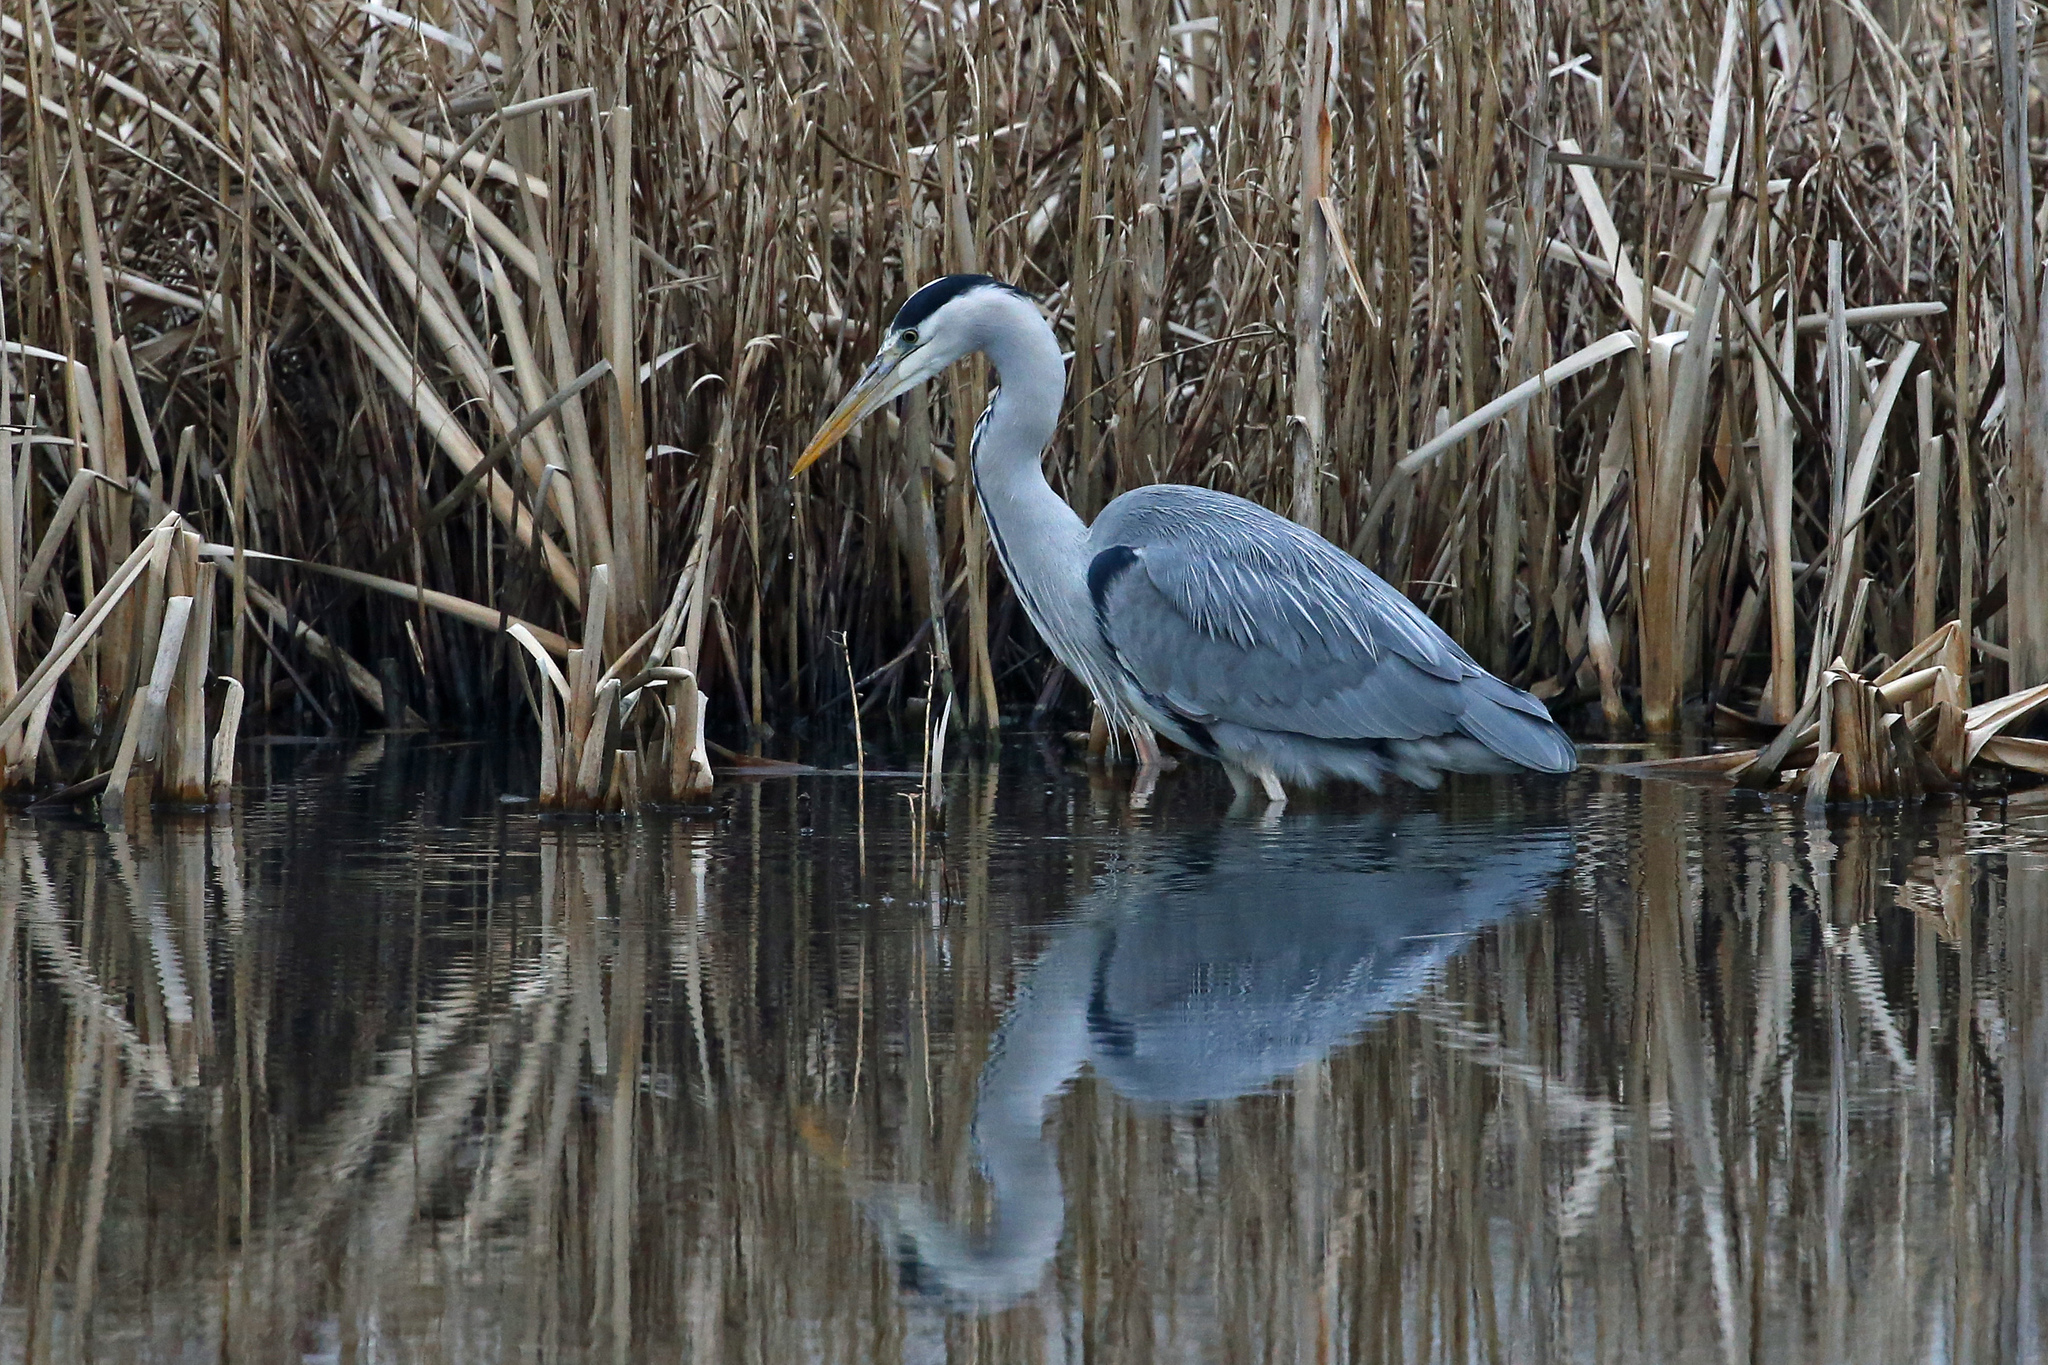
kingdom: Animalia
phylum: Chordata
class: Aves
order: Pelecaniformes
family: Ardeidae
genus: Ardea
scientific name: Ardea cinerea
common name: Grey heron
